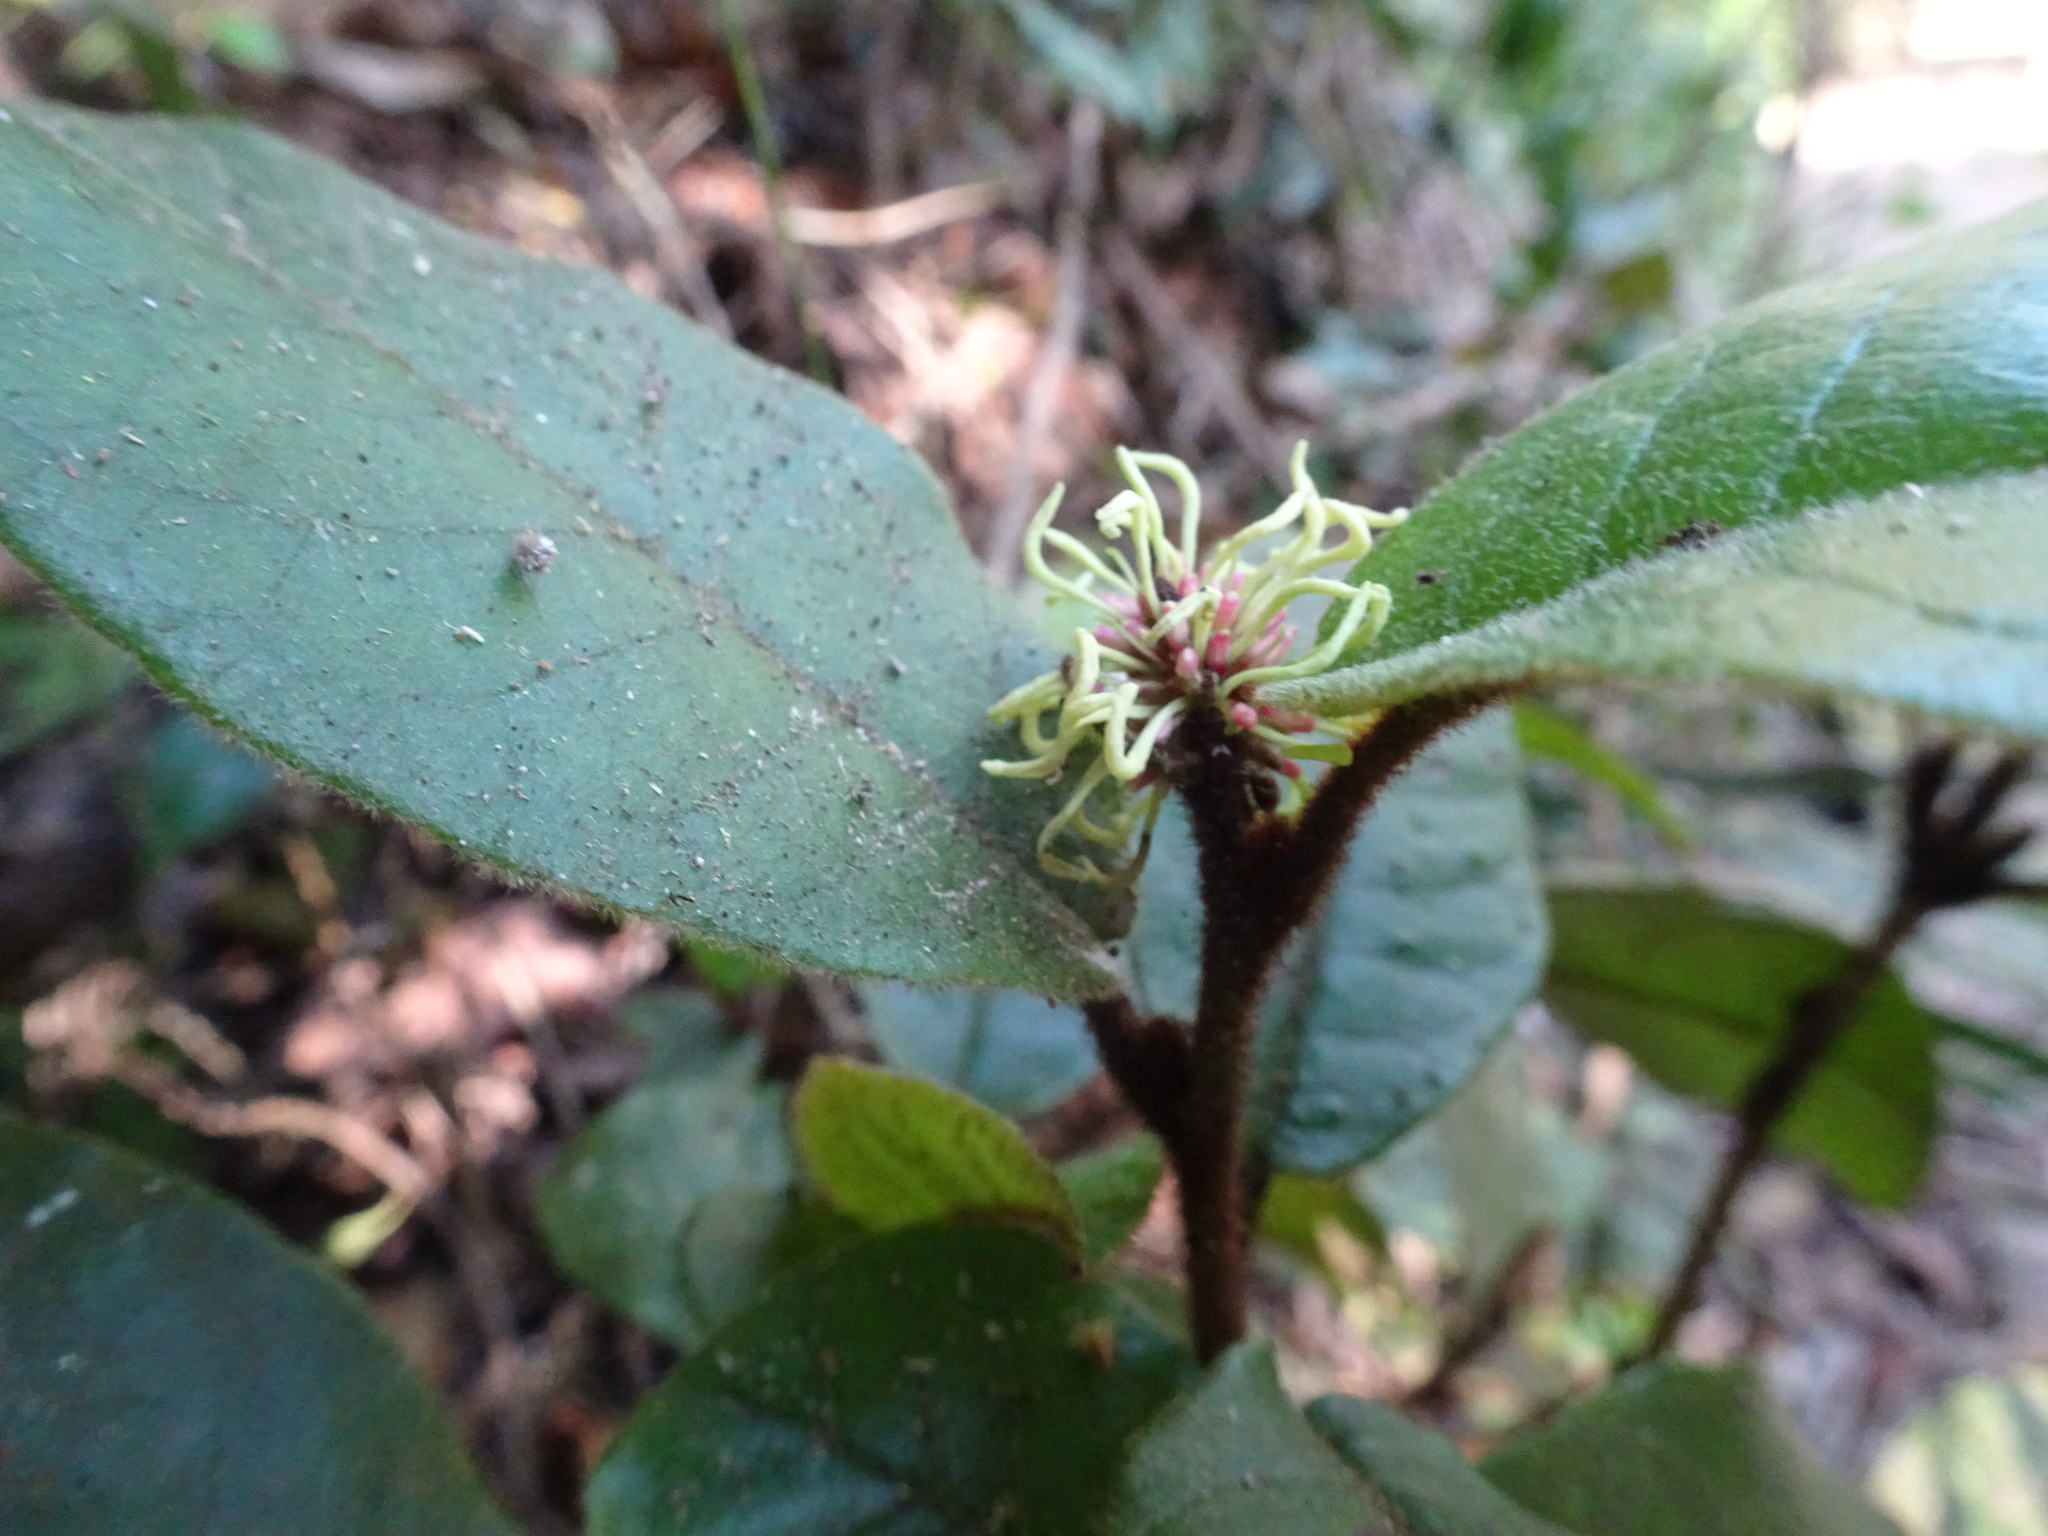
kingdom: Plantae
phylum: Tracheophyta
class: Magnoliopsida
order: Saxifragales
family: Hamamelidaceae
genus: Trichocladus
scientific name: Trichocladus crinitus
